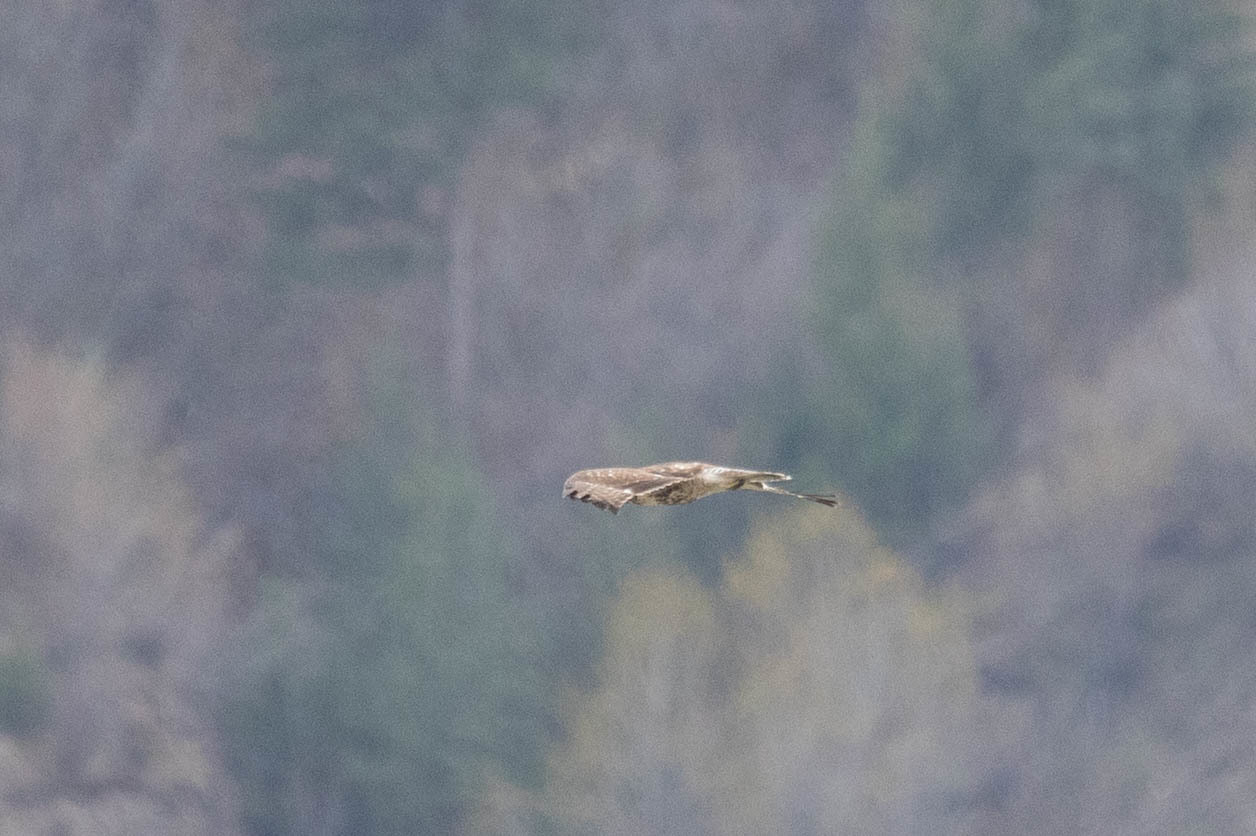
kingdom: Animalia
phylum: Chordata
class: Aves
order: Accipitriformes
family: Accipitridae
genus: Buteo
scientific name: Buteo jamaicensis
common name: Red-tailed hawk
